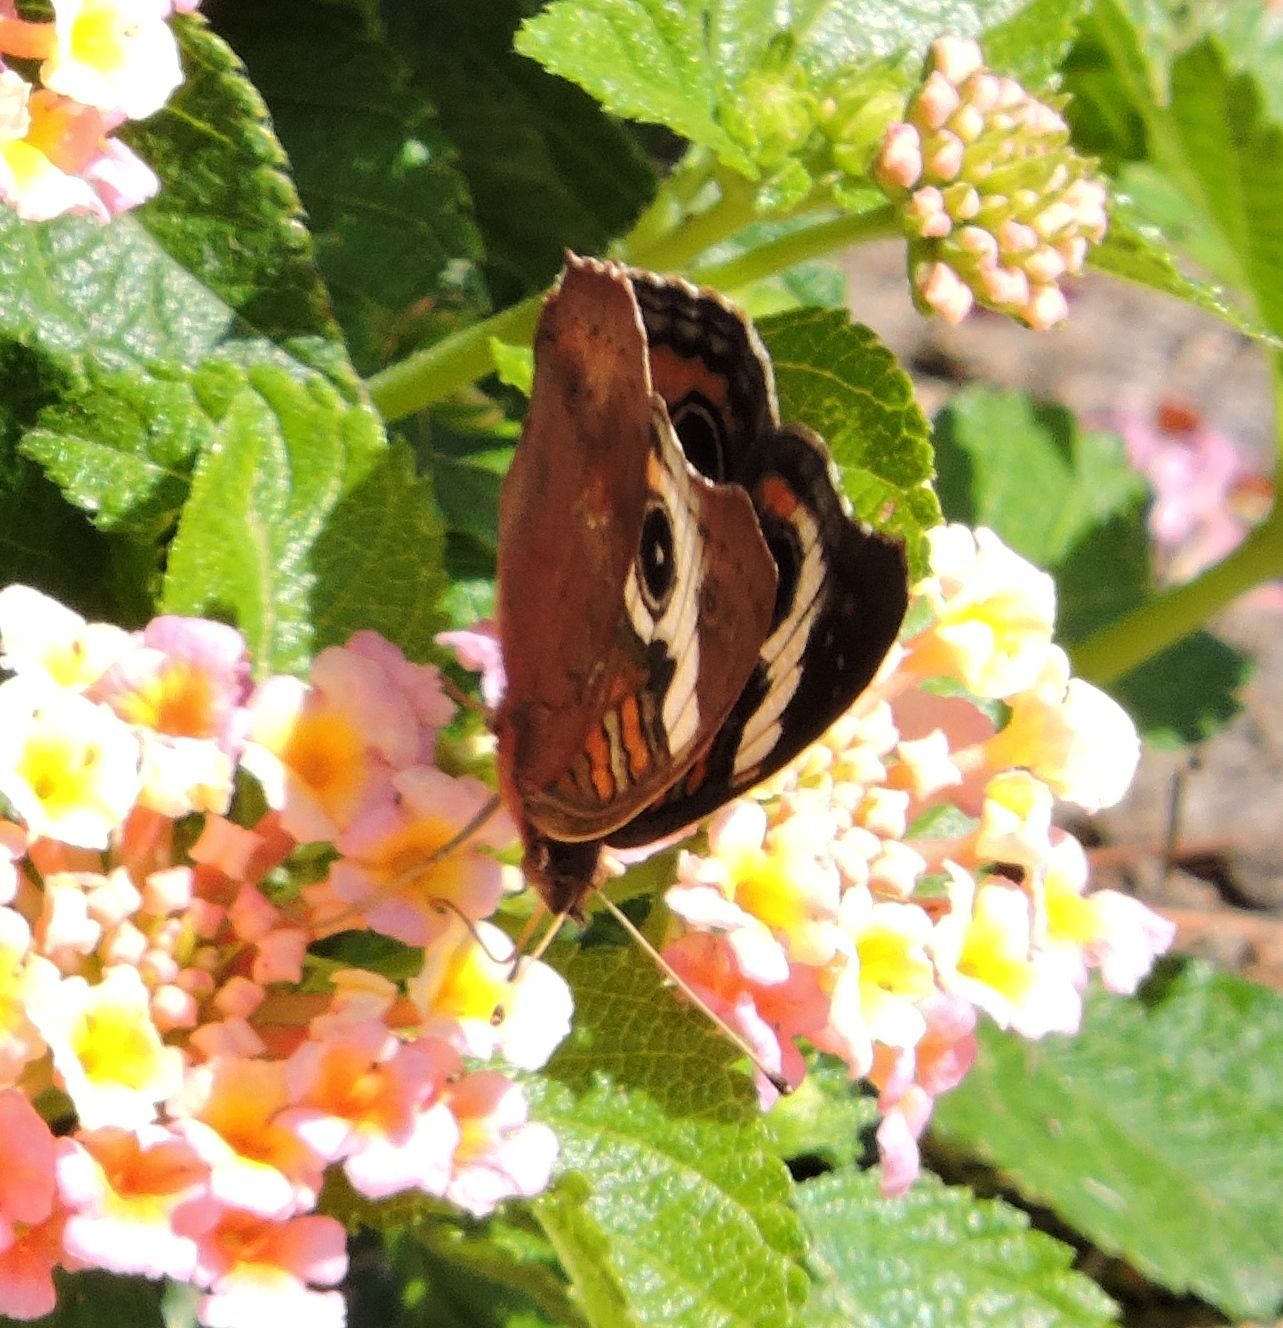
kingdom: Animalia
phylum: Arthropoda
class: Insecta
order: Lepidoptera
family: Nymphalidae
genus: Junonia
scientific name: Junonia coenia
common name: Common buckeye
